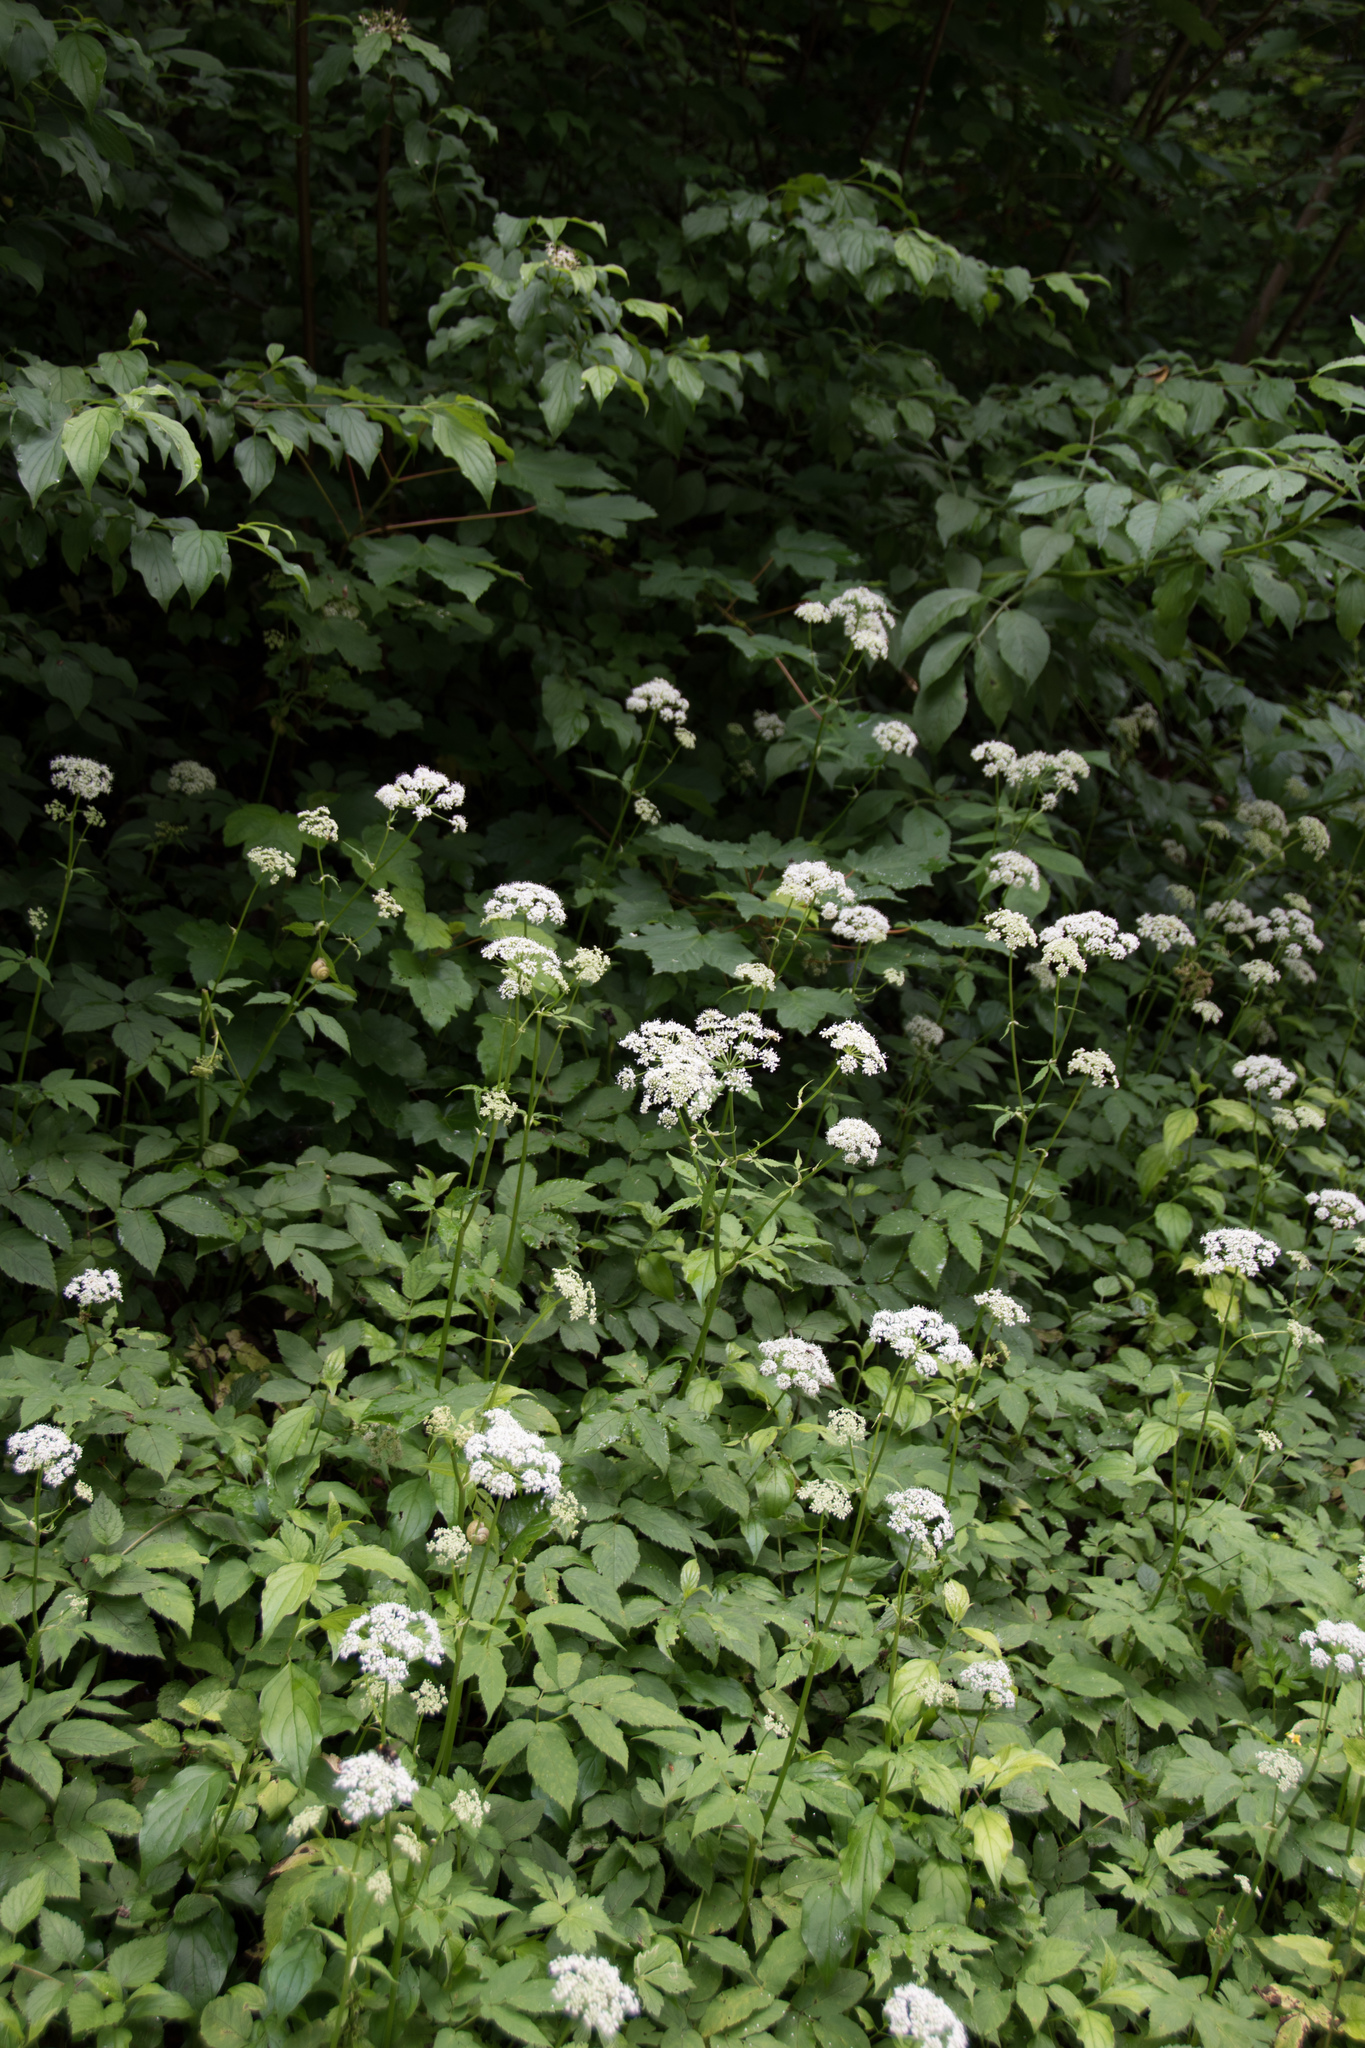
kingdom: Plantae
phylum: Tracheophyta
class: Magnoliopsida
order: Apiales
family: Apiaceae
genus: Aegopodium
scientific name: Aegopodium podagraria
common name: Ground-elder
